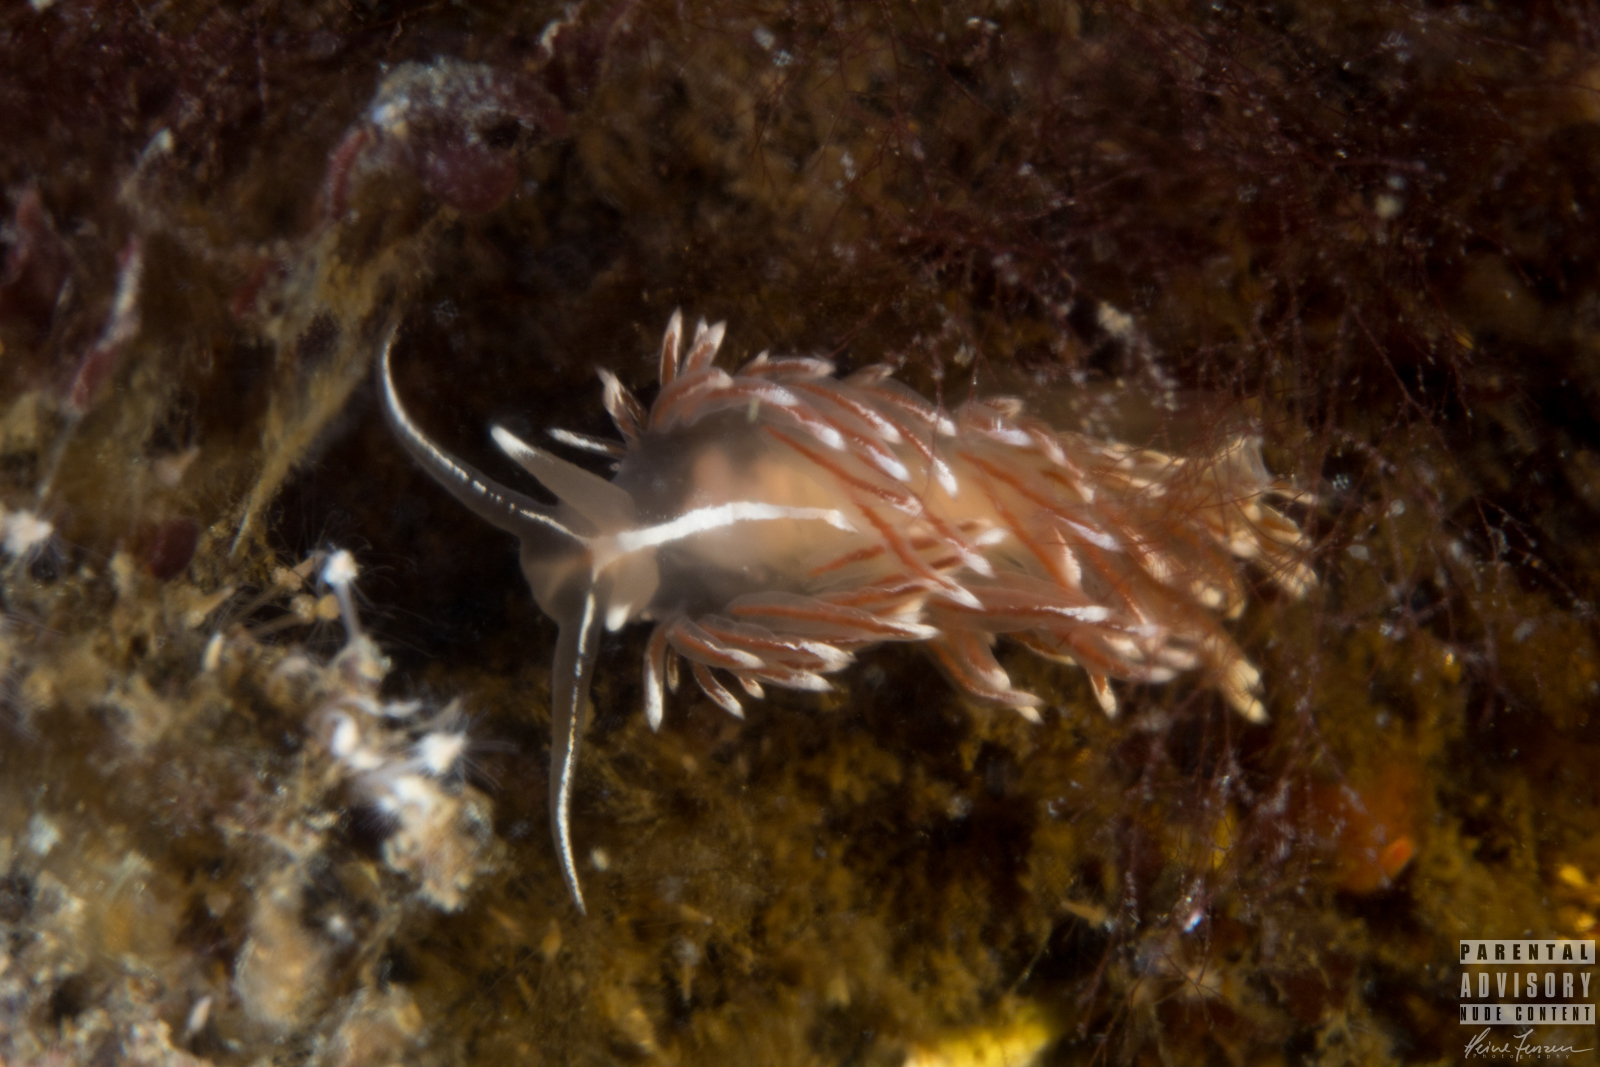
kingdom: Animalia
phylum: Mollusca
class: Gastropoda
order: Nudibranchia
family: Coryphellidae
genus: Coryphella
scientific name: Coryphella lineata
